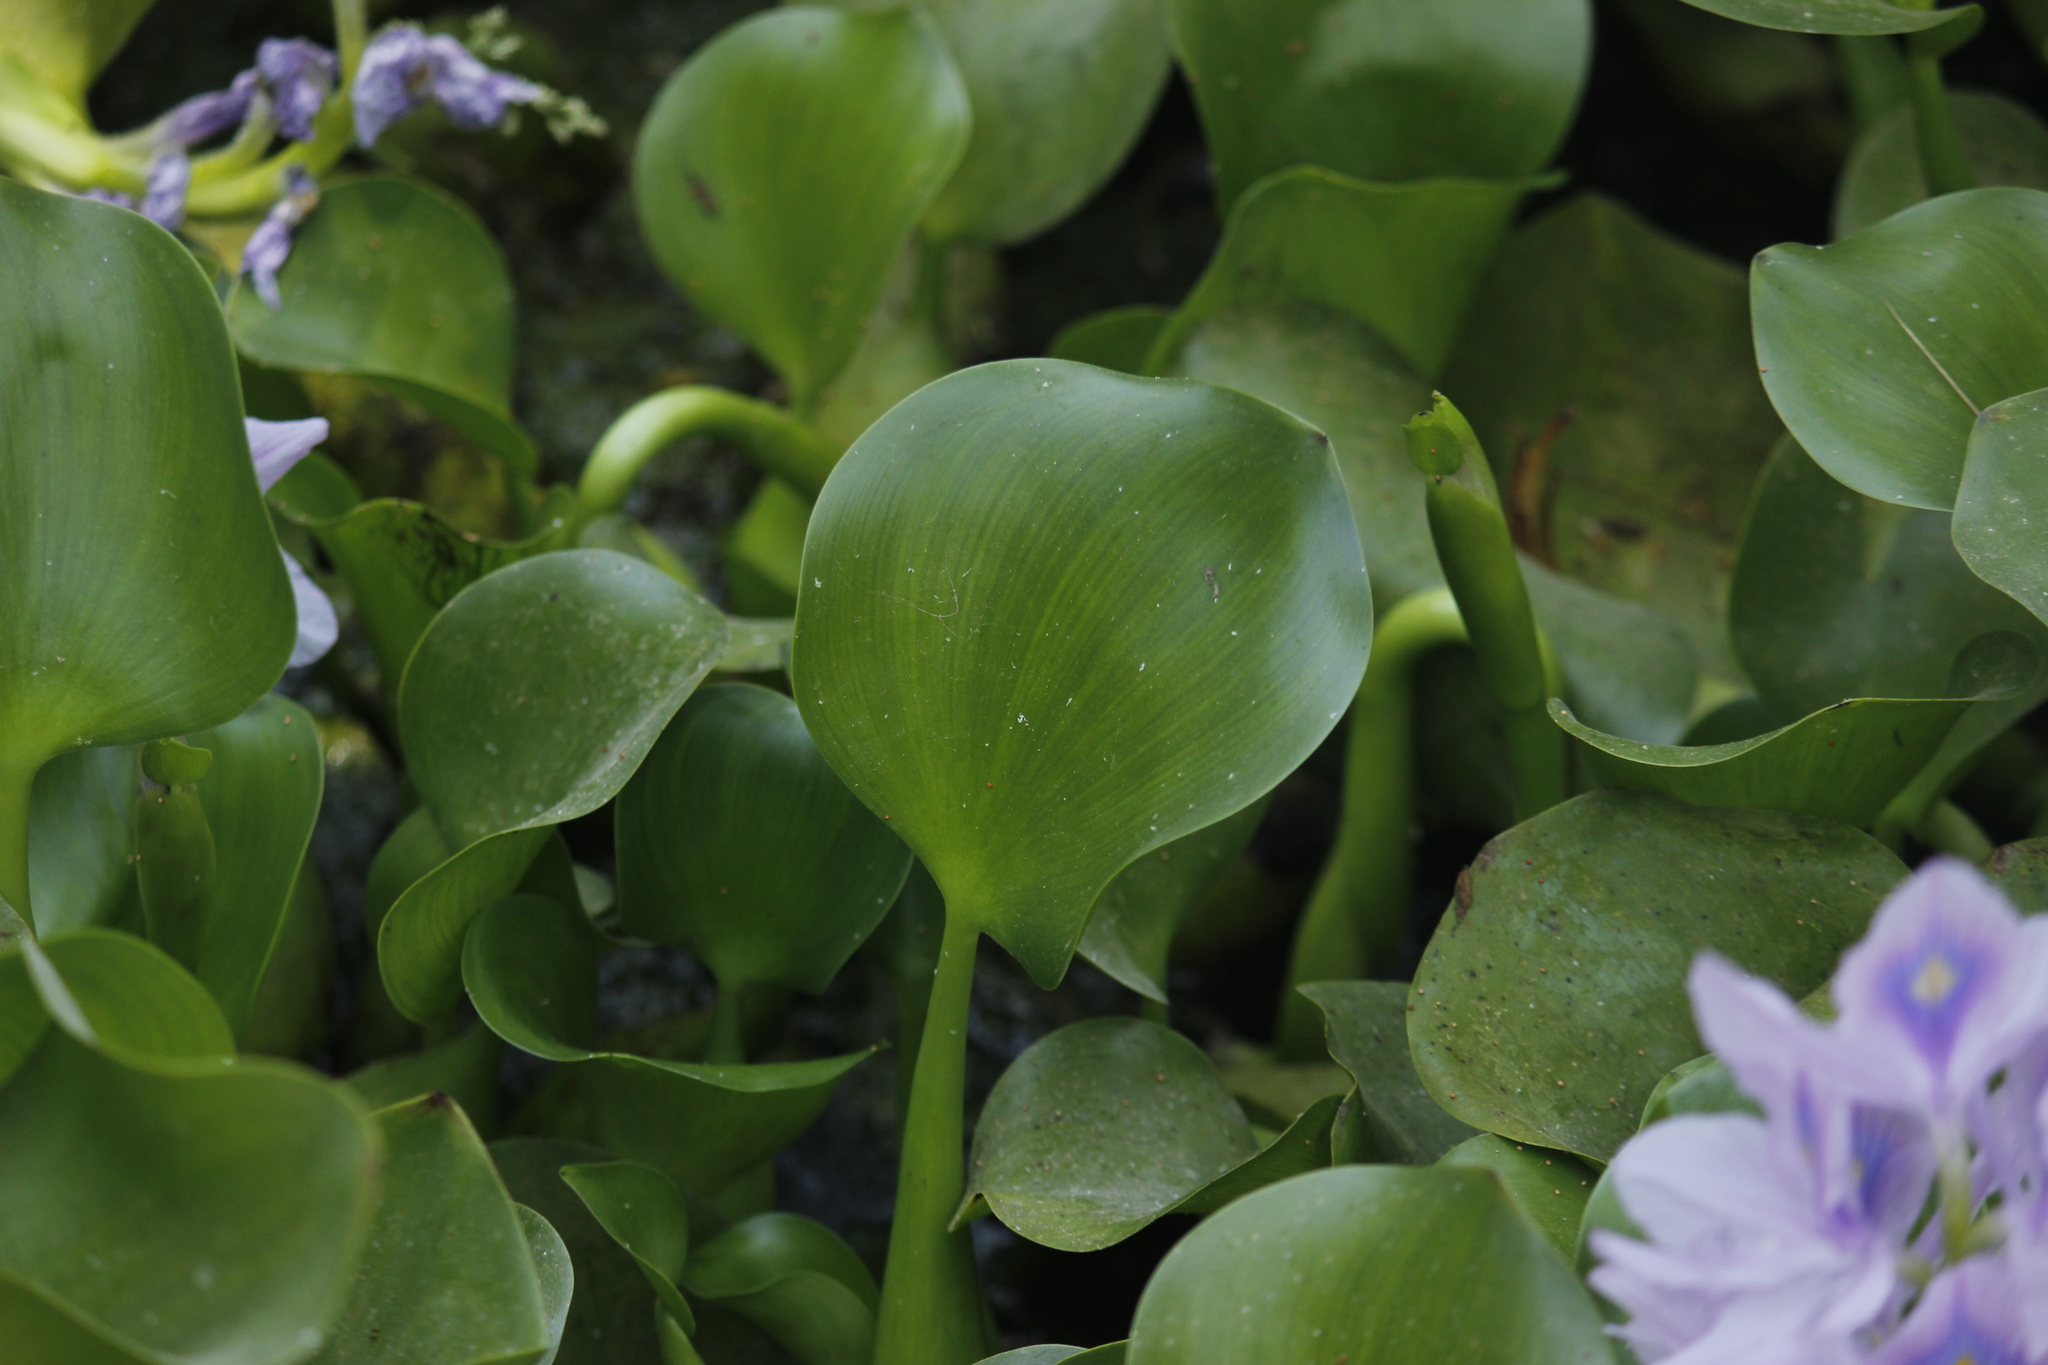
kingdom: Plantae
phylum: Tracheophyta
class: Liliopsida
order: Commelinales
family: Pontederiaceae
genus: Pontederia
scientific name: Pontederia crassipes
